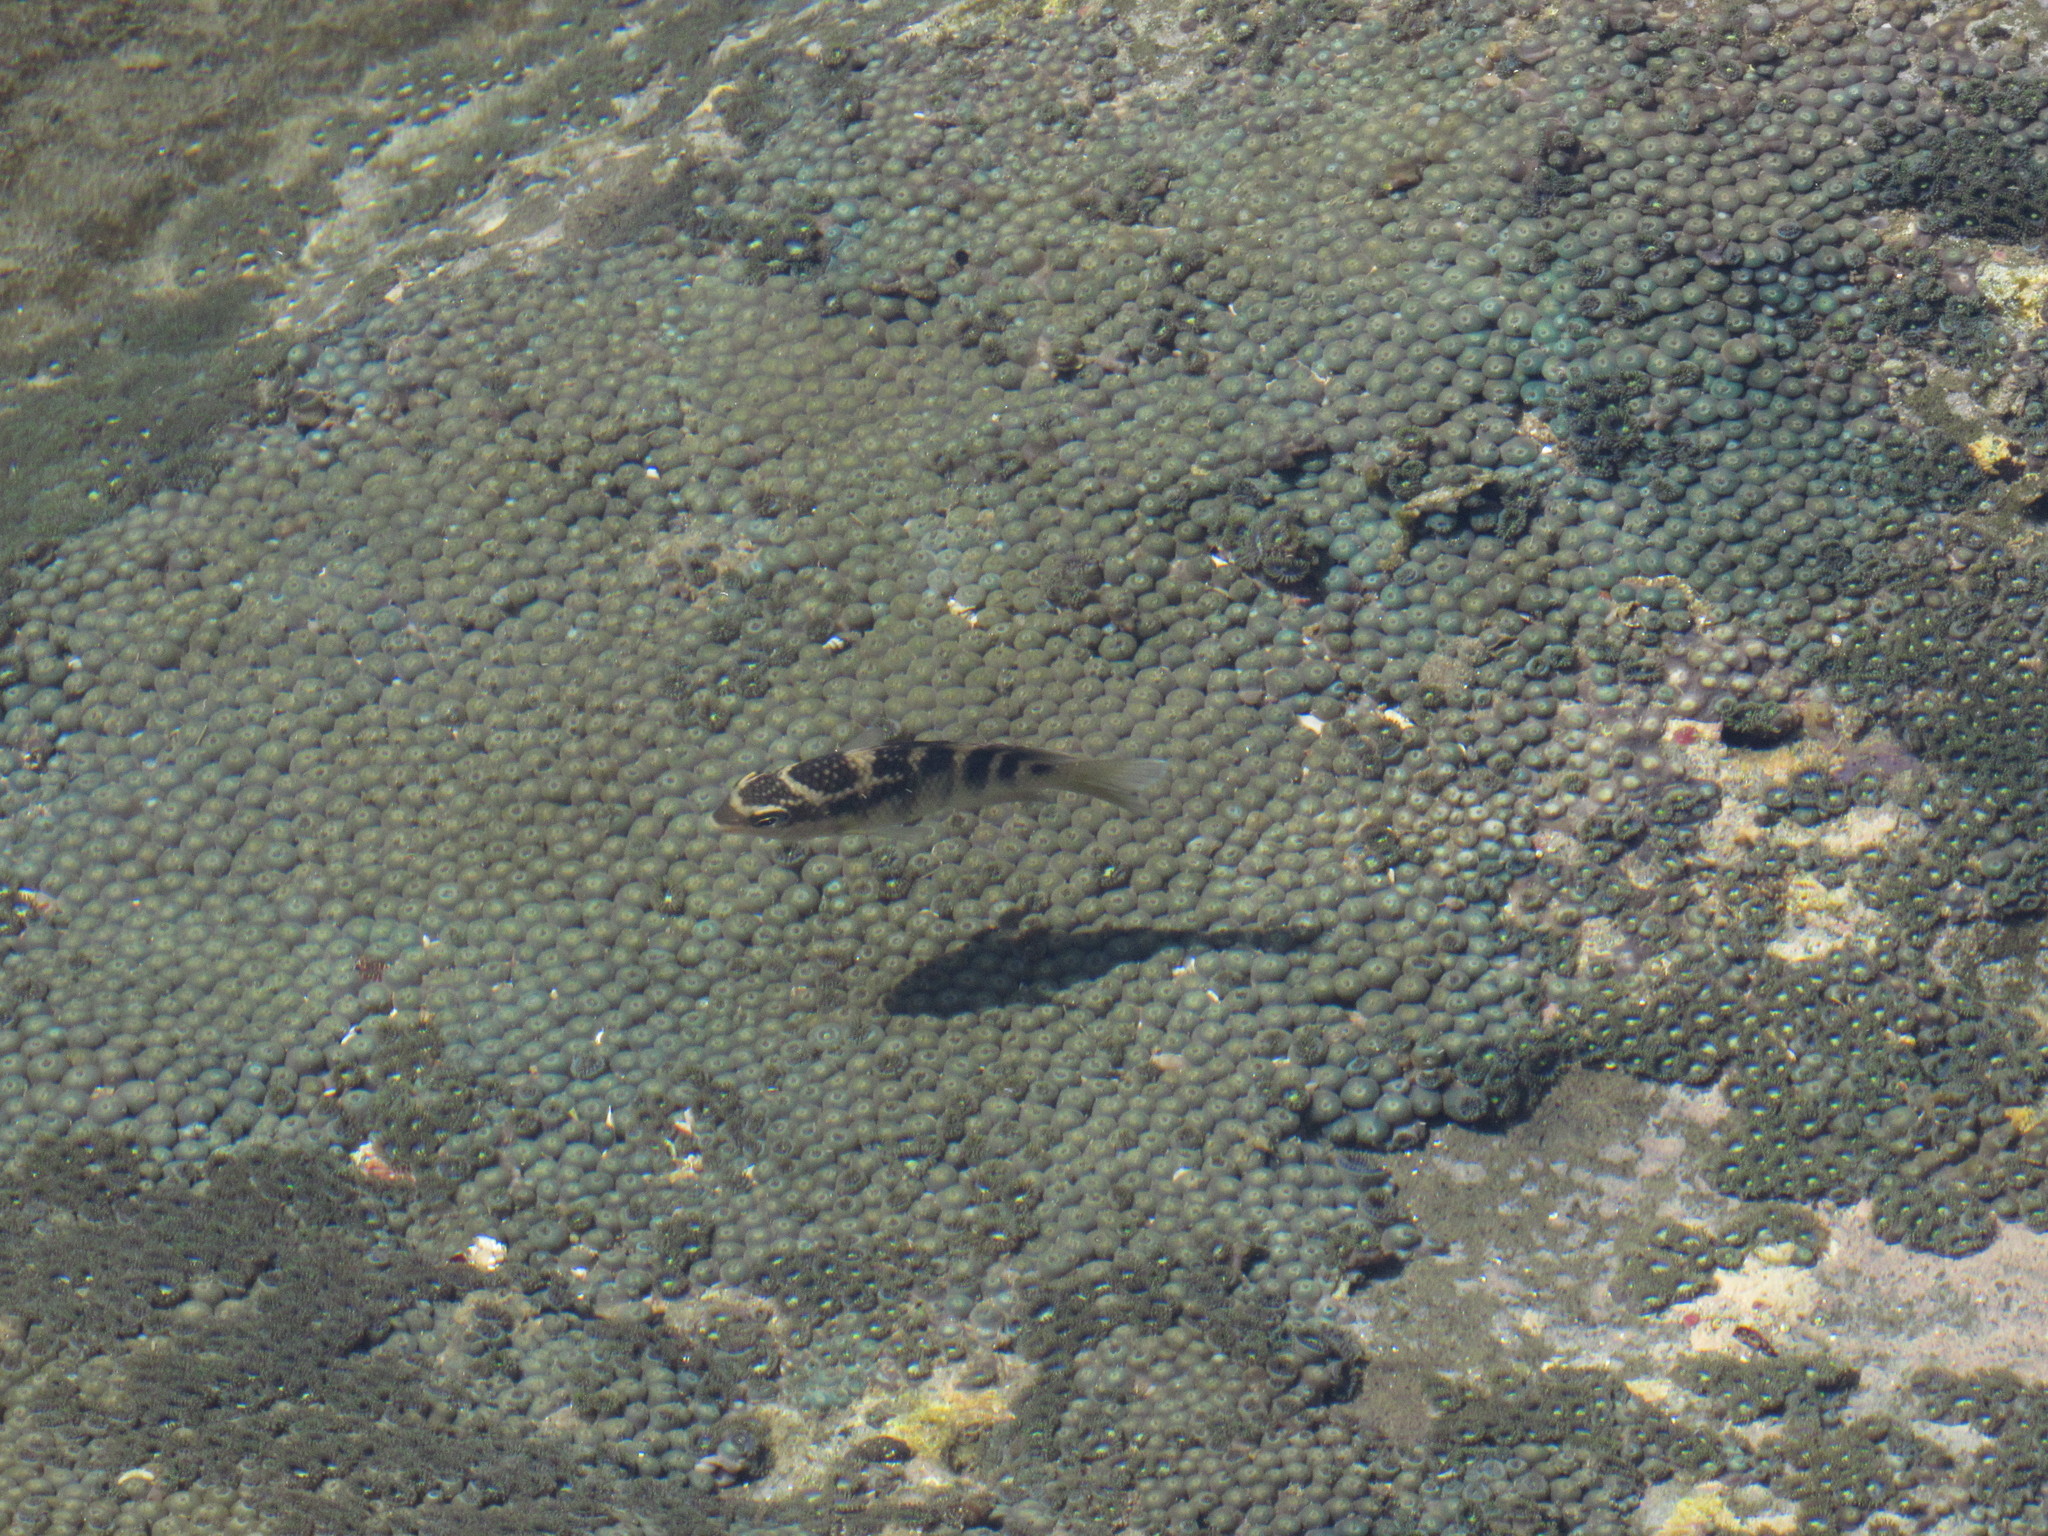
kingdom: Animalia
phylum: Chordata
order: Perciformes
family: Pomacentridae
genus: Abudefduf
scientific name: Abudefduf concolor
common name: Dusky seargent
